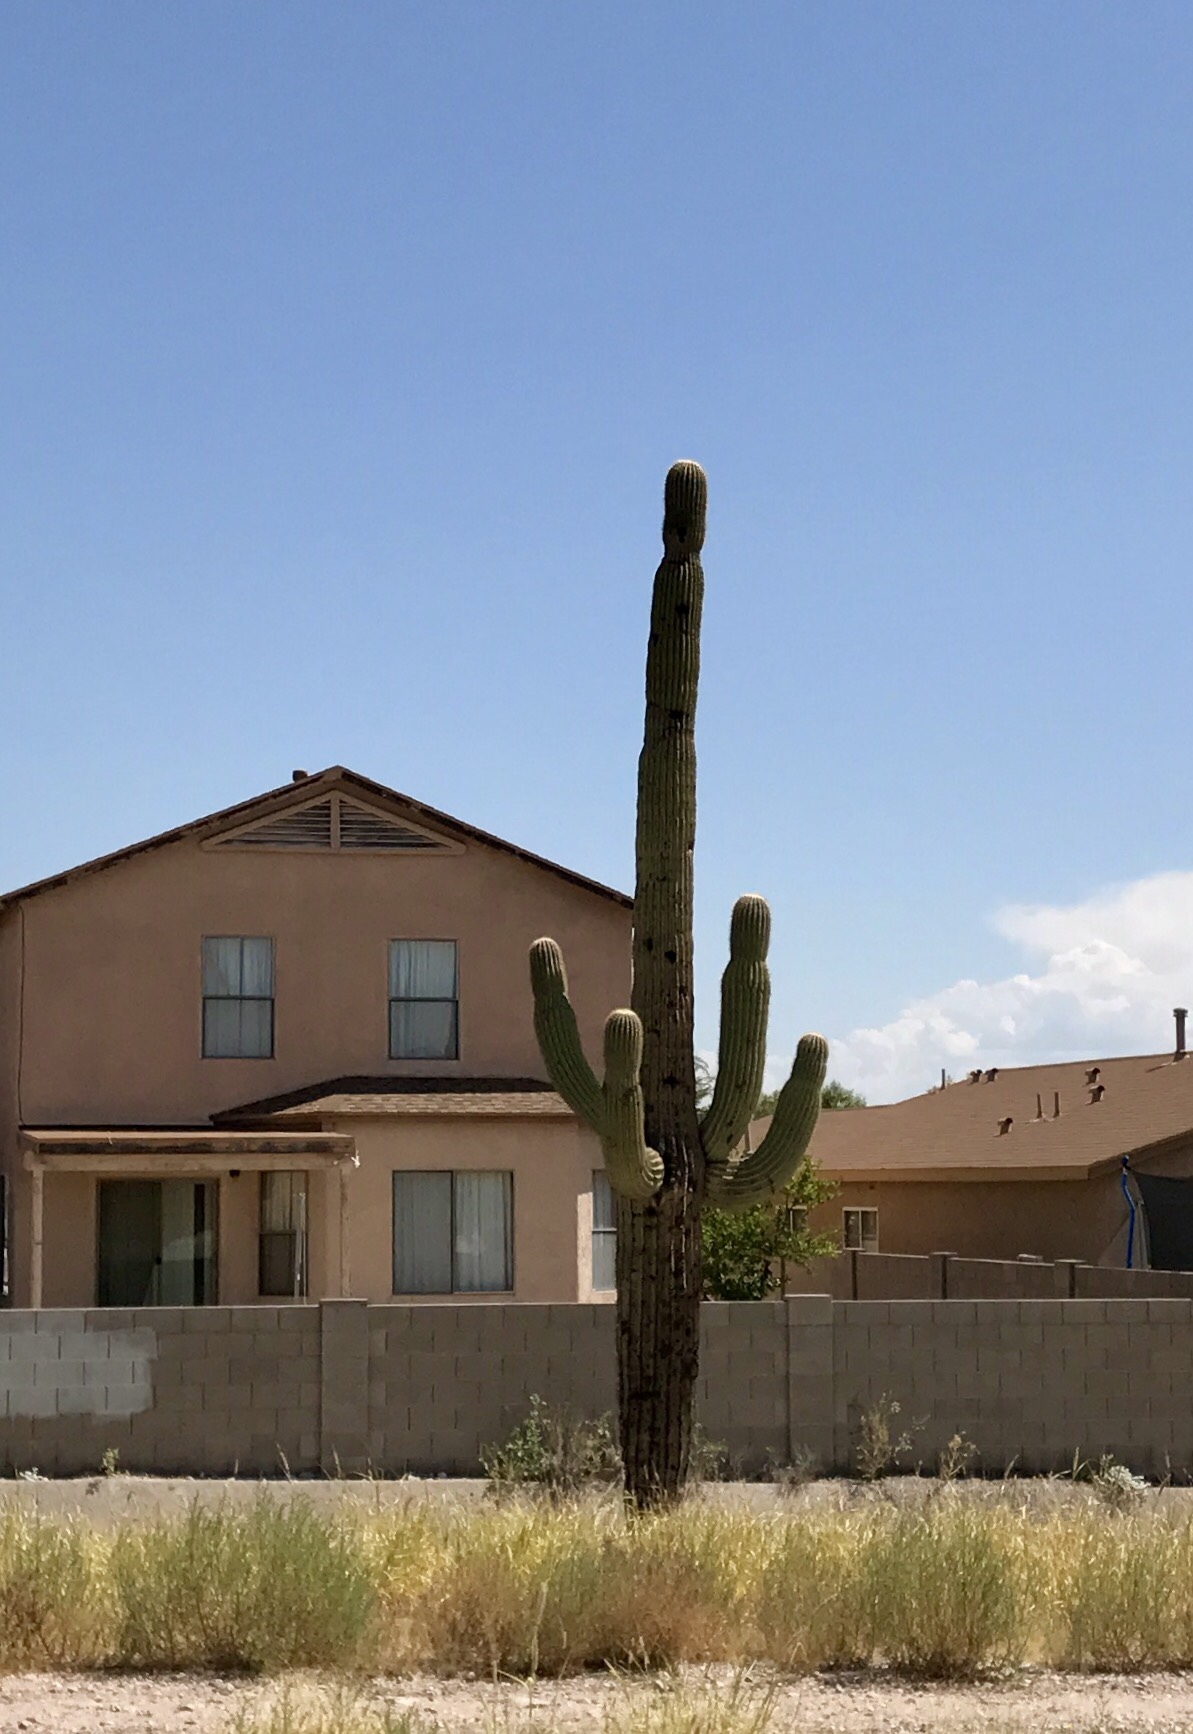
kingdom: Plantae
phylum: Tracheophyta
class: Magnoliopsida
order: Caryophyllales
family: Cactaceae
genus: Carnegiea
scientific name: Carnegiea gigantea
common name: Saguaro
